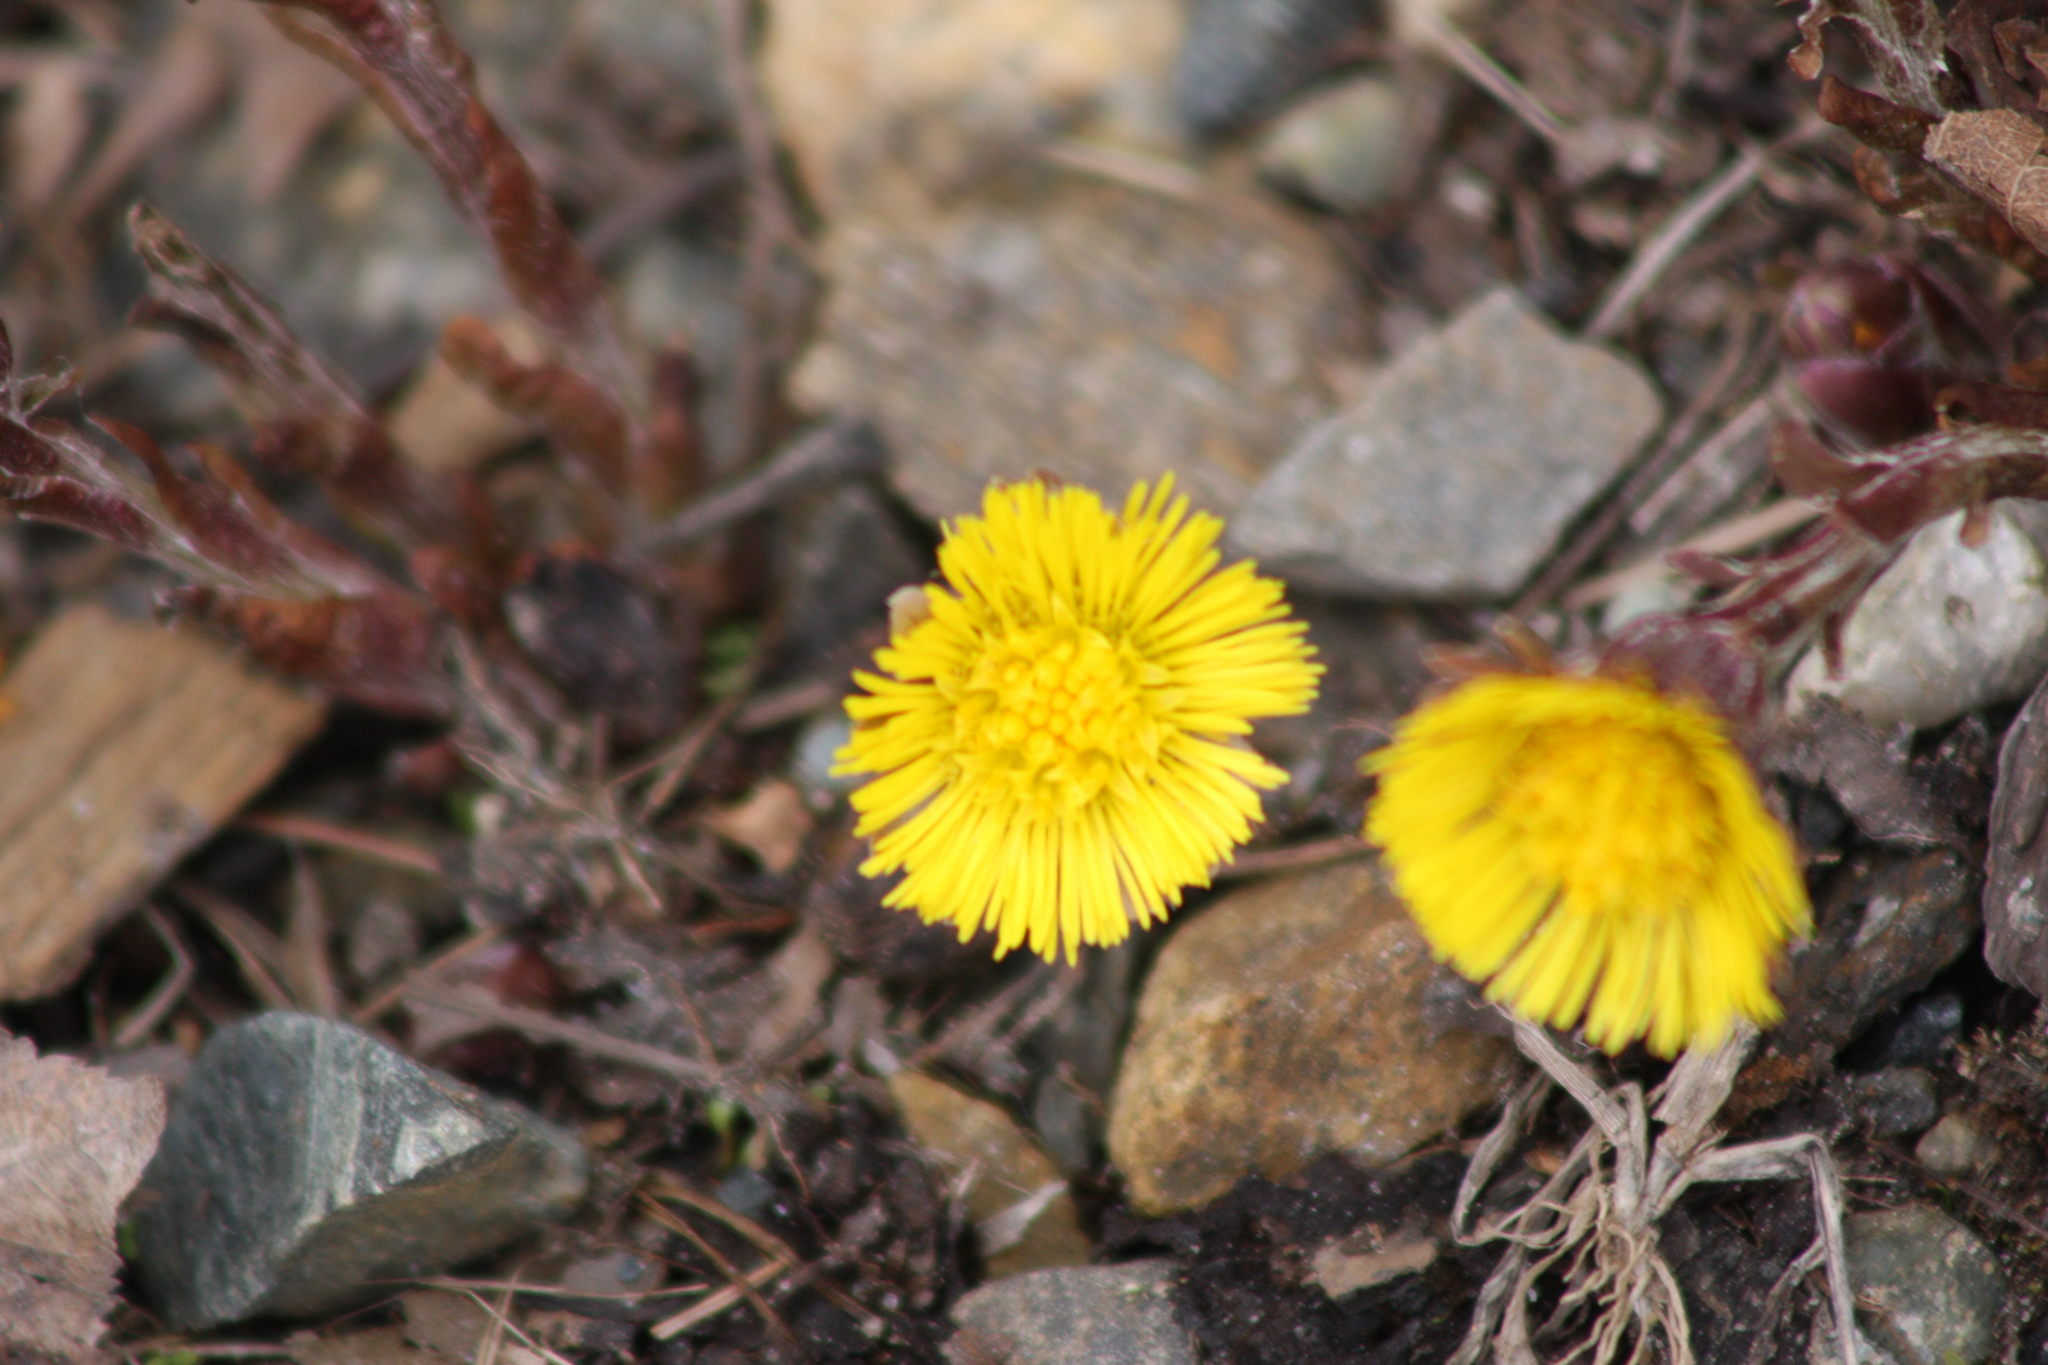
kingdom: Plantae
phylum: Tracheophyta
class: Magnoliopsida
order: Asterales
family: Asteraceae
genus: Tussilago
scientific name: Tussilago farfara
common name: Coltsfoot
